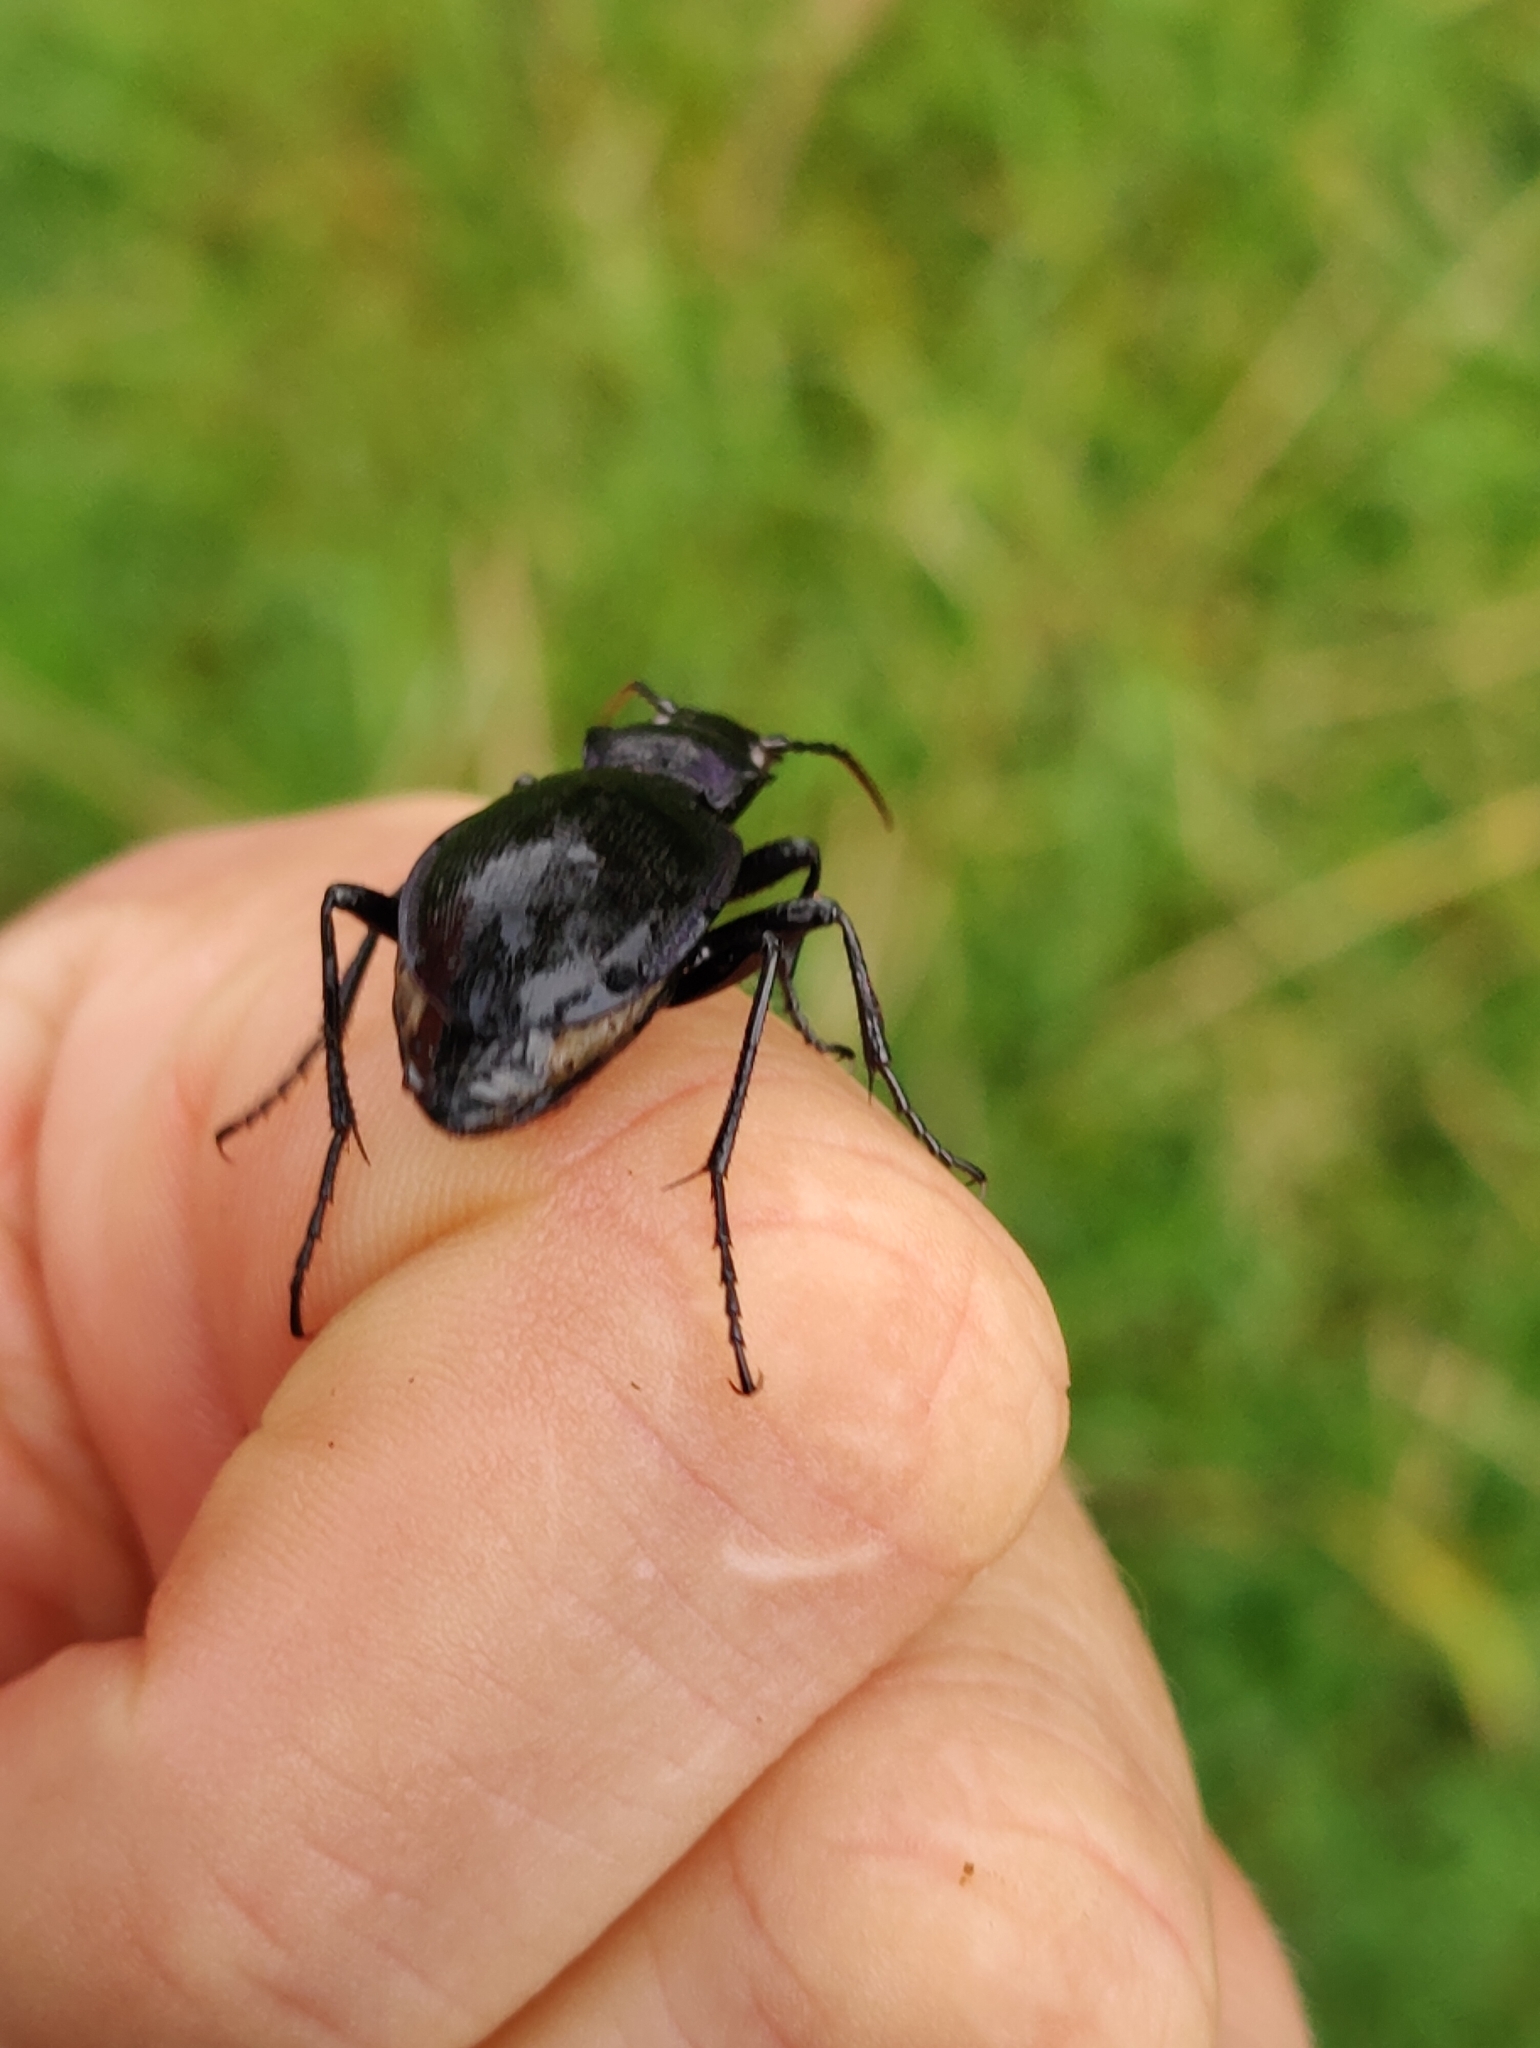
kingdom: Animalia
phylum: Arthropoda
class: Insecta
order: Coleoptera
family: Carabidae
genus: Carabus
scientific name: Carabus problematicus
